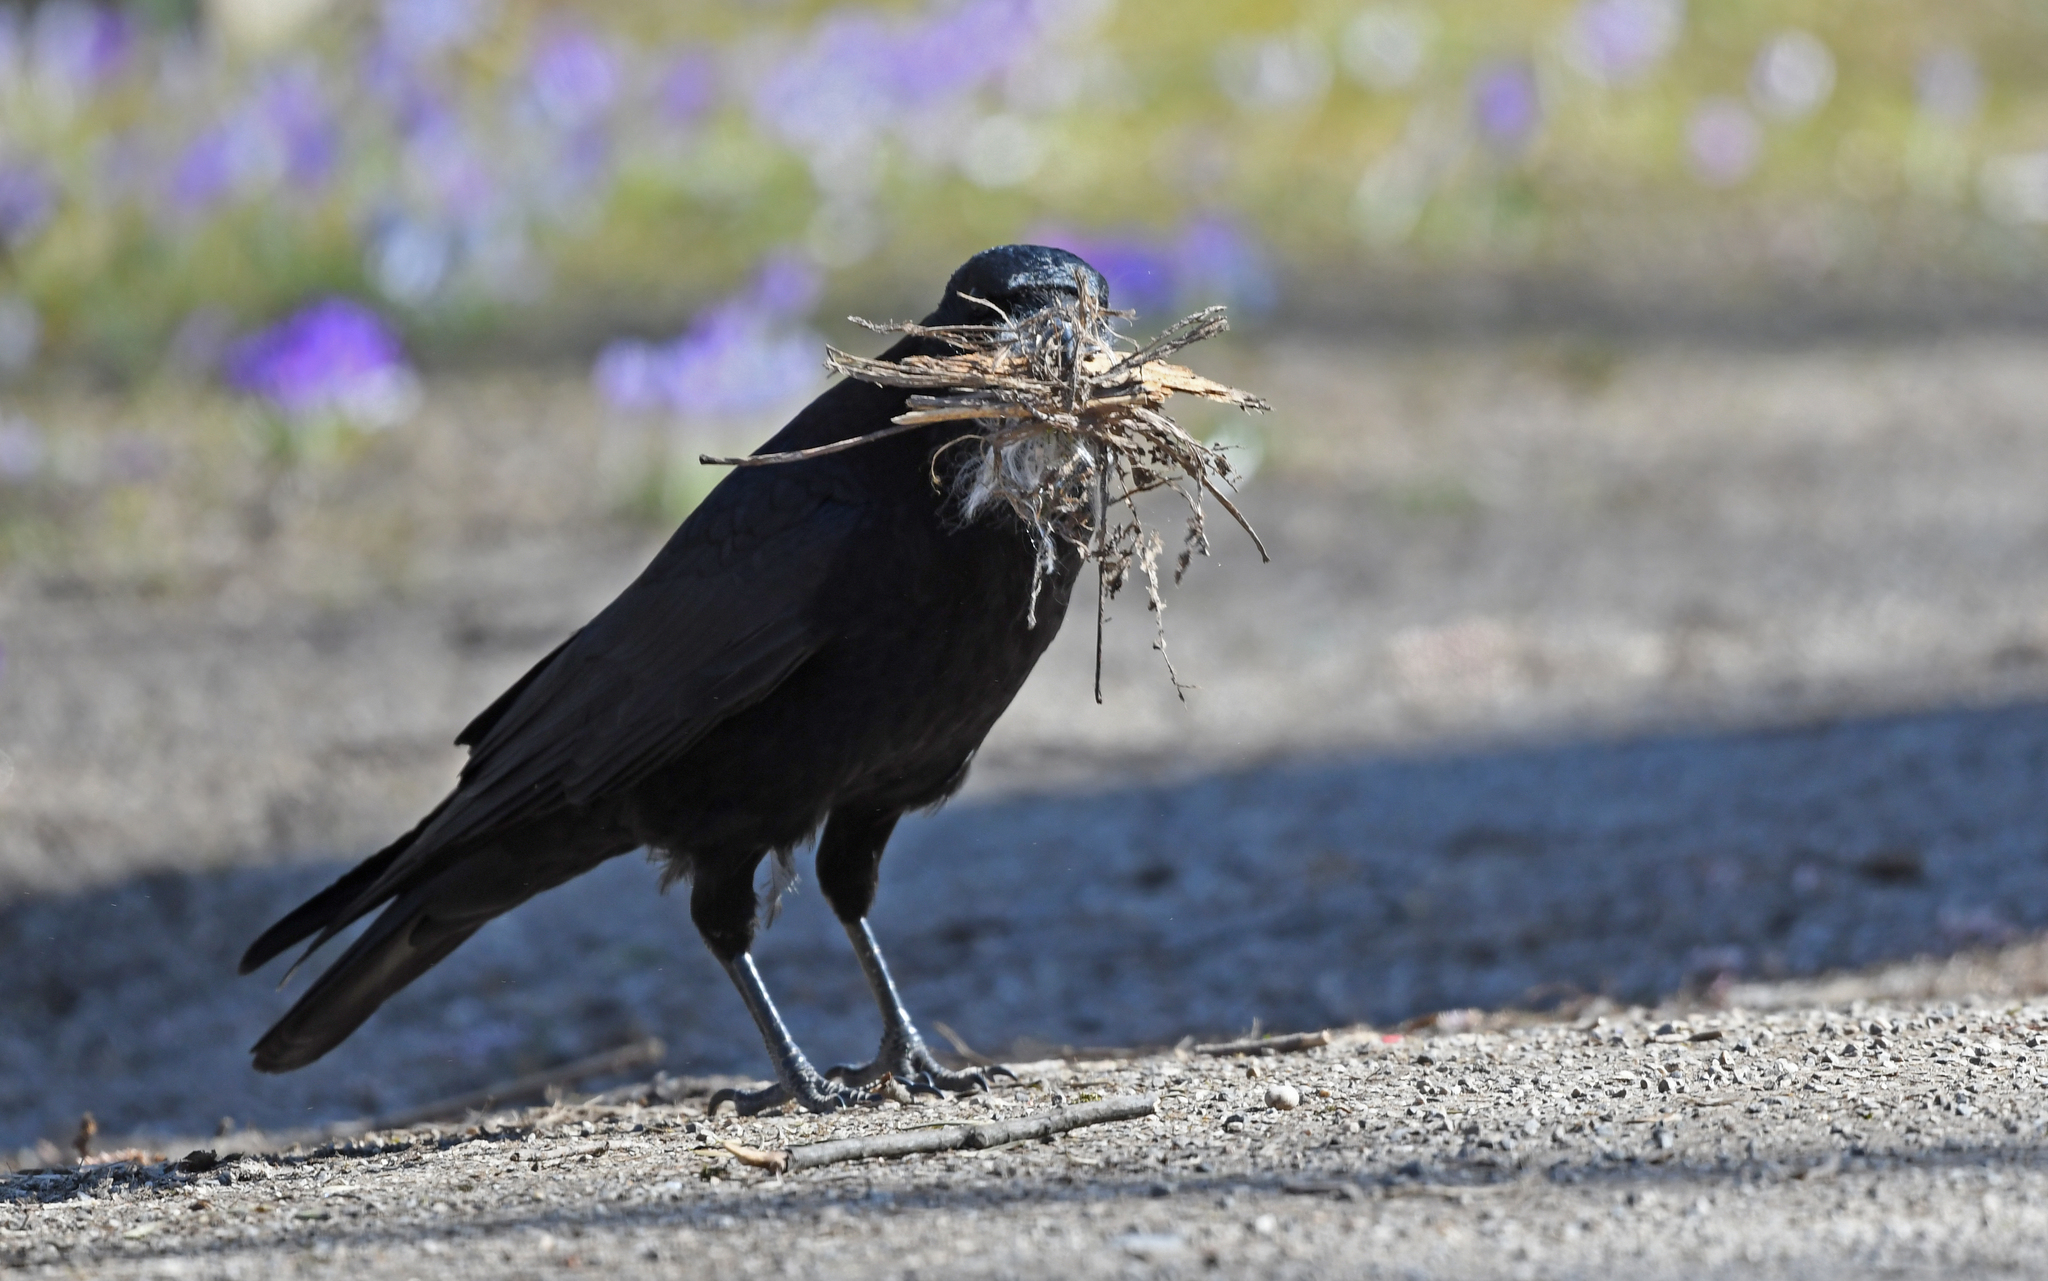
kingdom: Animalia
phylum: Chordata
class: Aves
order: Passeriformes
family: Corvidae
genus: Corvus
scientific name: Corvus corone
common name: Carrion crow
